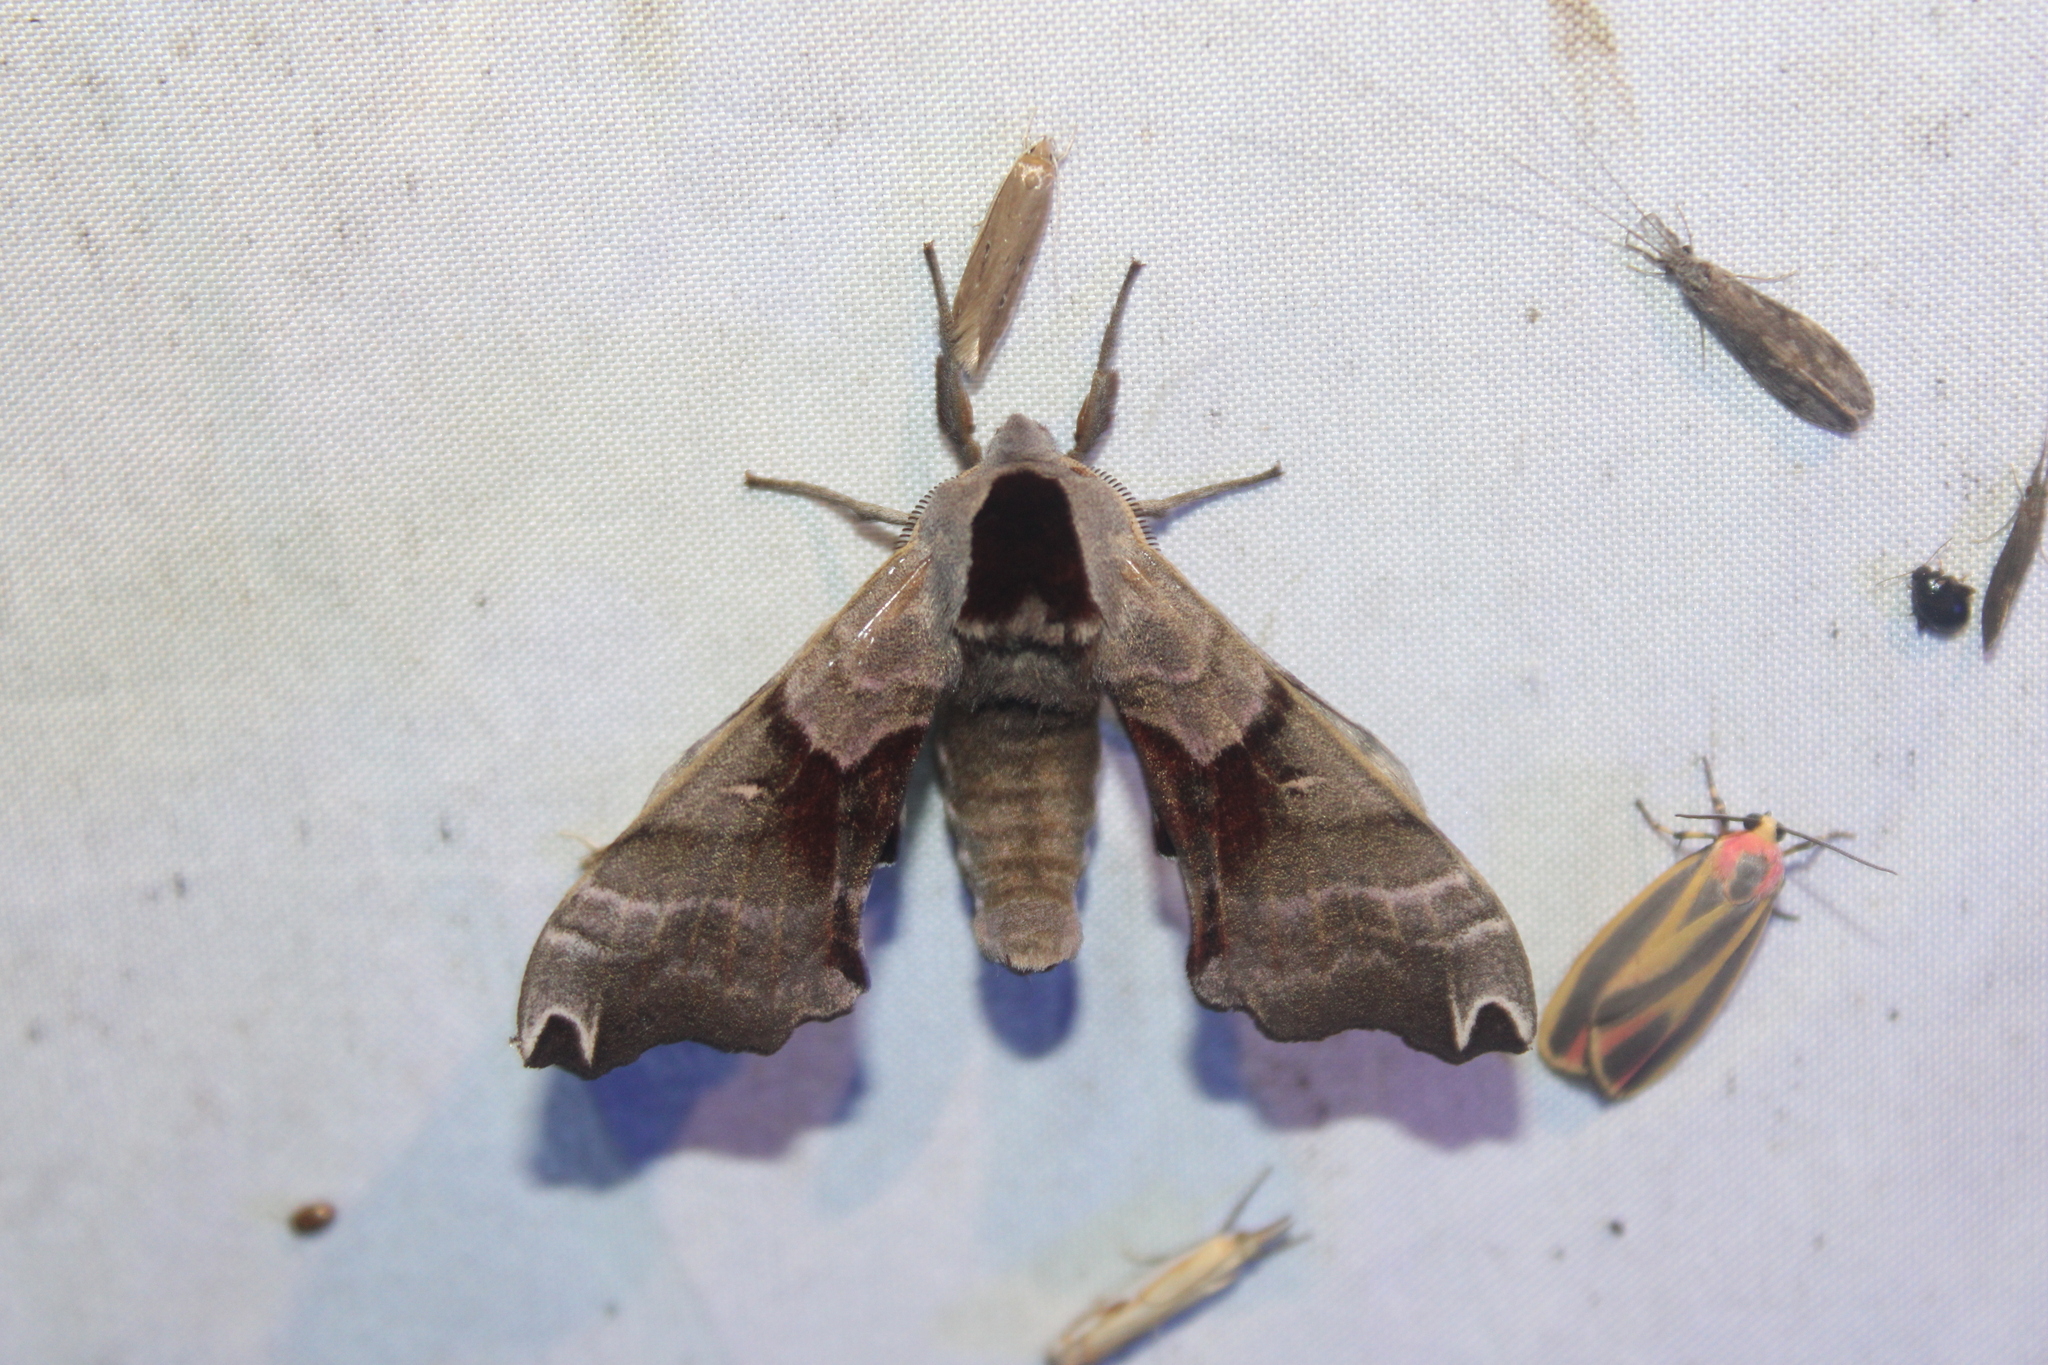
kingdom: Animalia
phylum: Arthropoda
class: Insecta
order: Lepidoptera
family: Sphingidae
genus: Smerinthus
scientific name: Smerinthus jamaicensis
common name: Twin spotted sphinx
